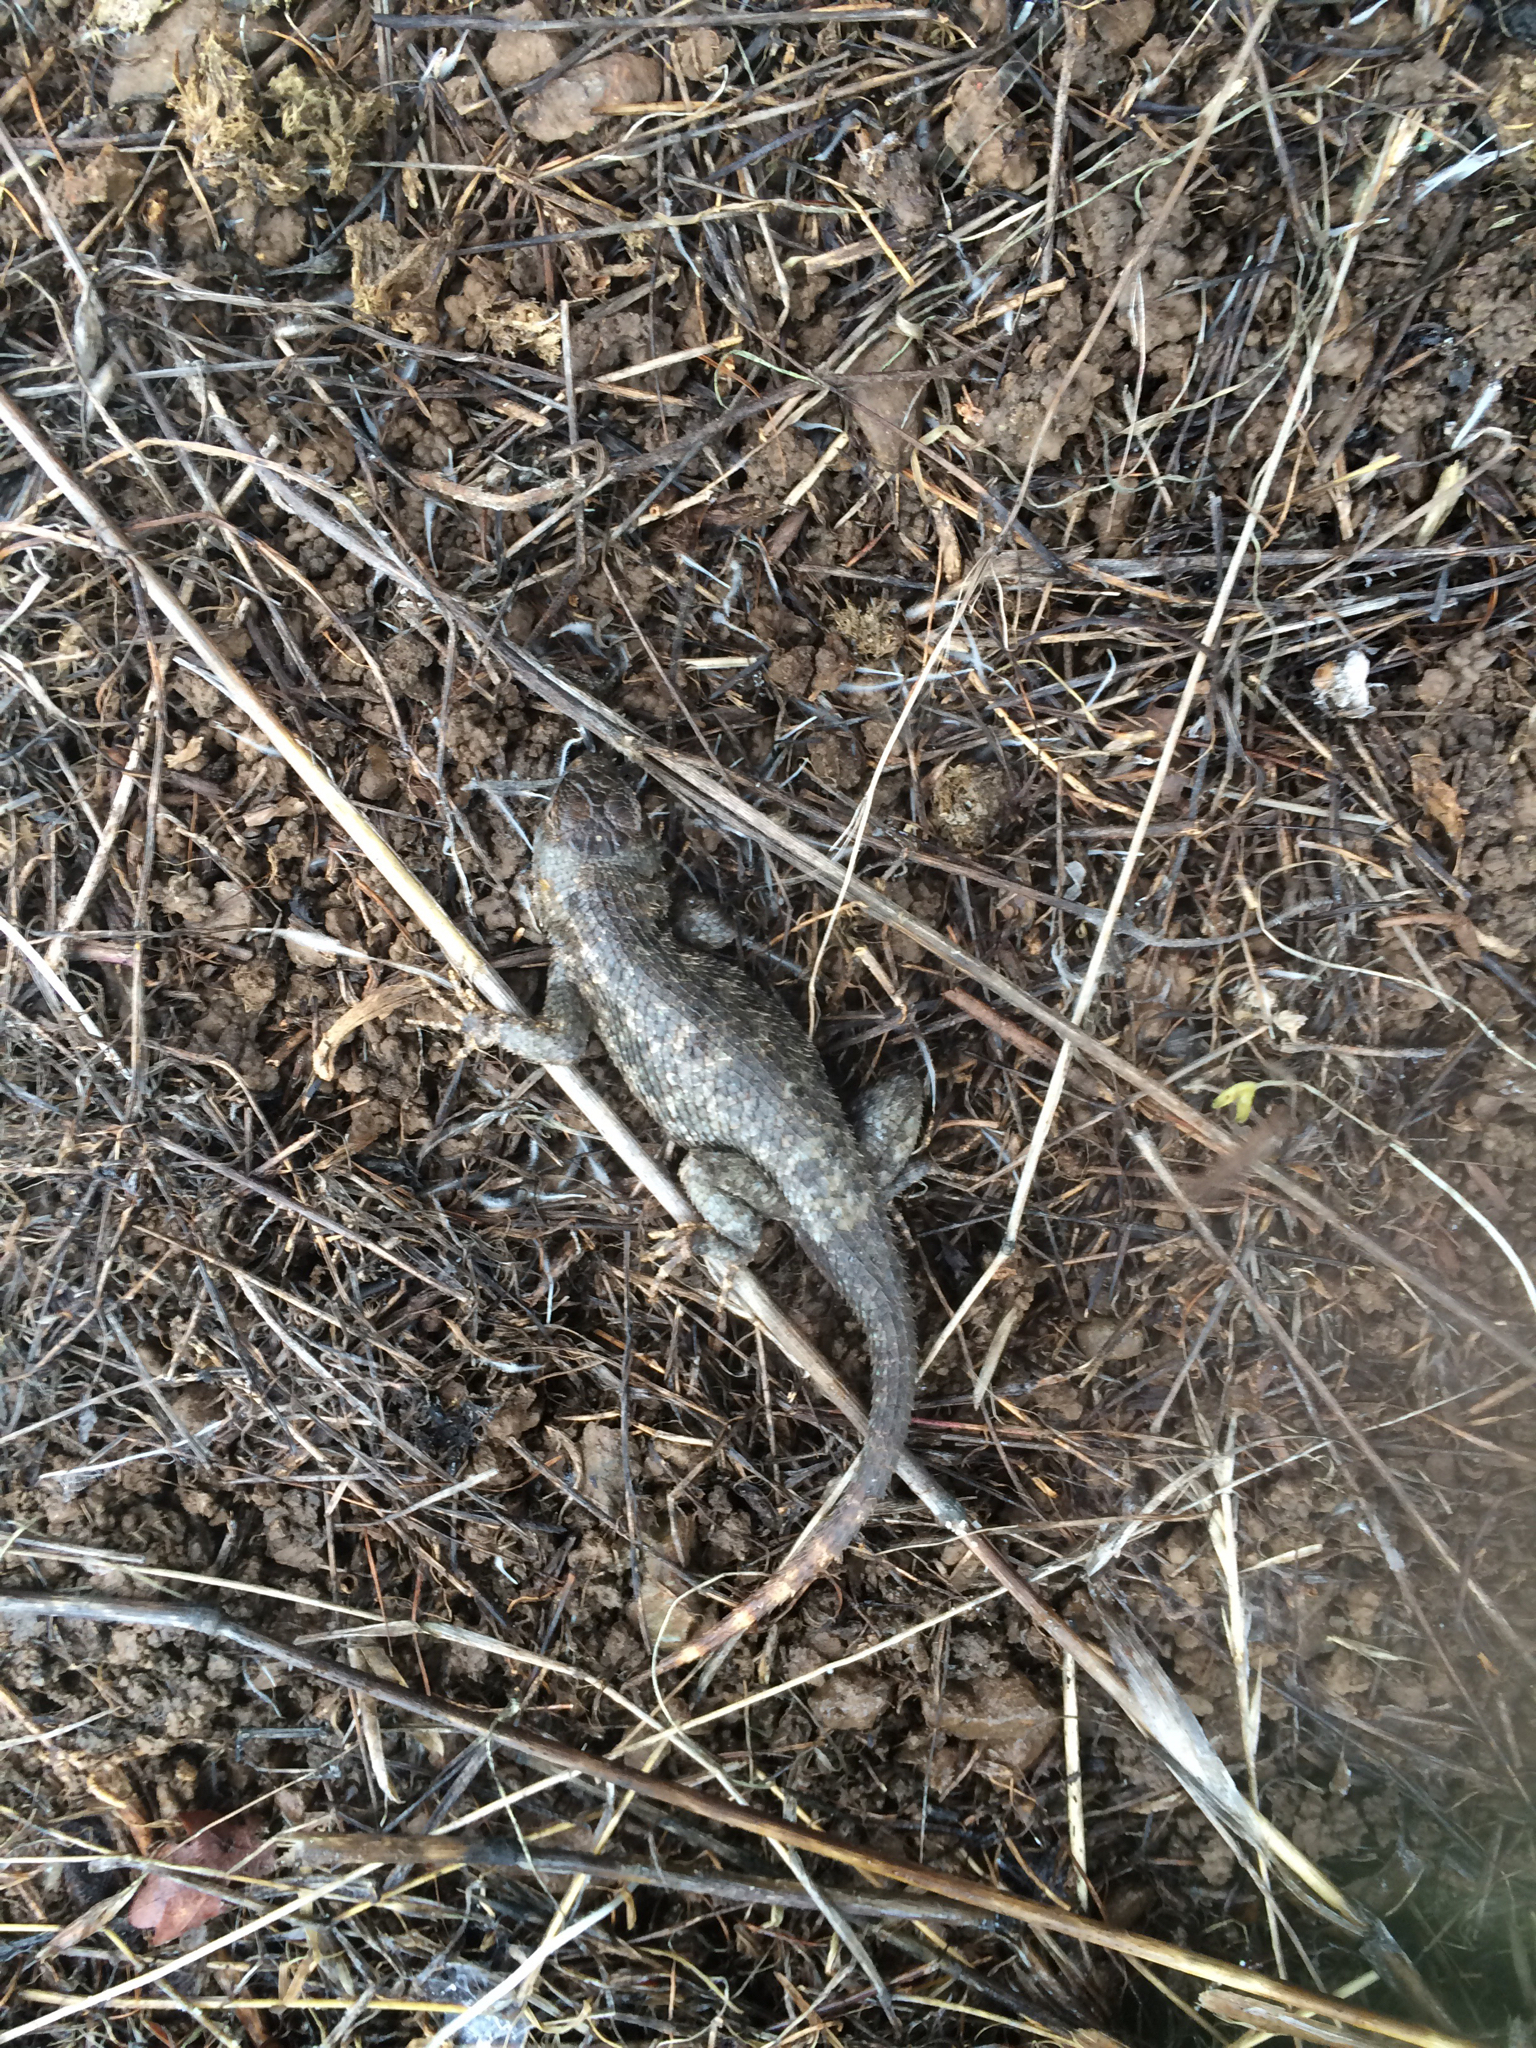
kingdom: Animalia
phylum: Chordata
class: Squamata
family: Phrynosomatidae
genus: Sceloporus
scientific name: Sceloporus occidentalis
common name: Western fence lizard
